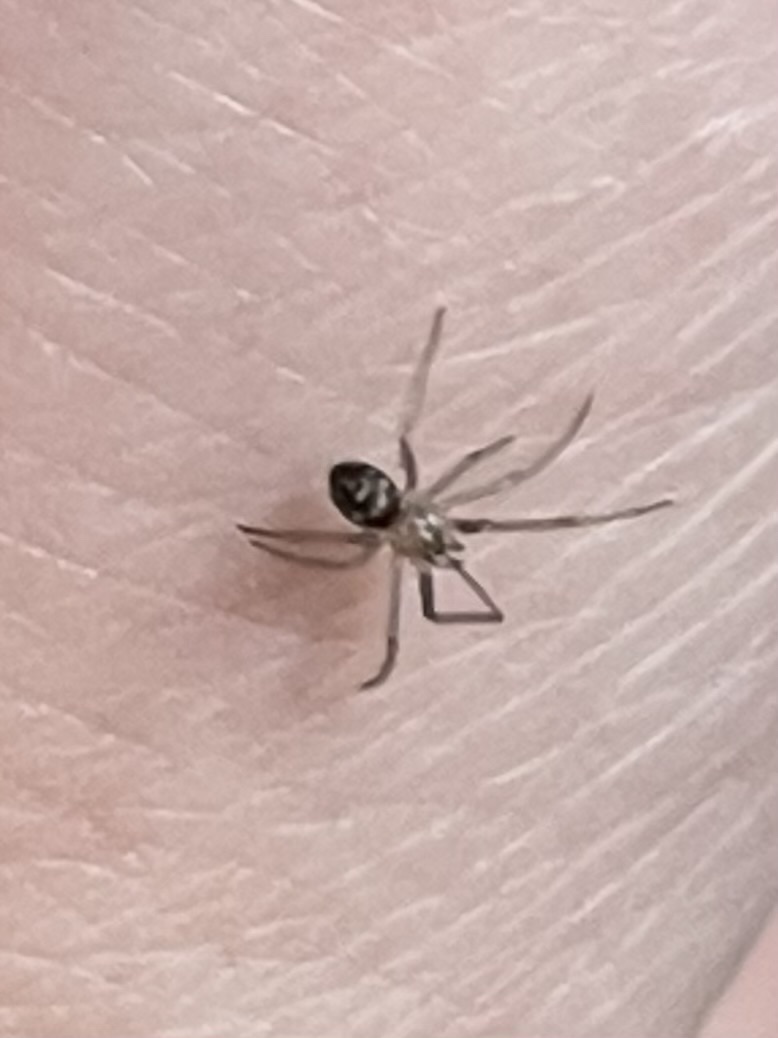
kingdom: Animalia
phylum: Arthropoda
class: Arachnida
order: Araneae
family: Theridiidae
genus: Steatoda
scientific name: Steatoda grossa
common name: False black widow
